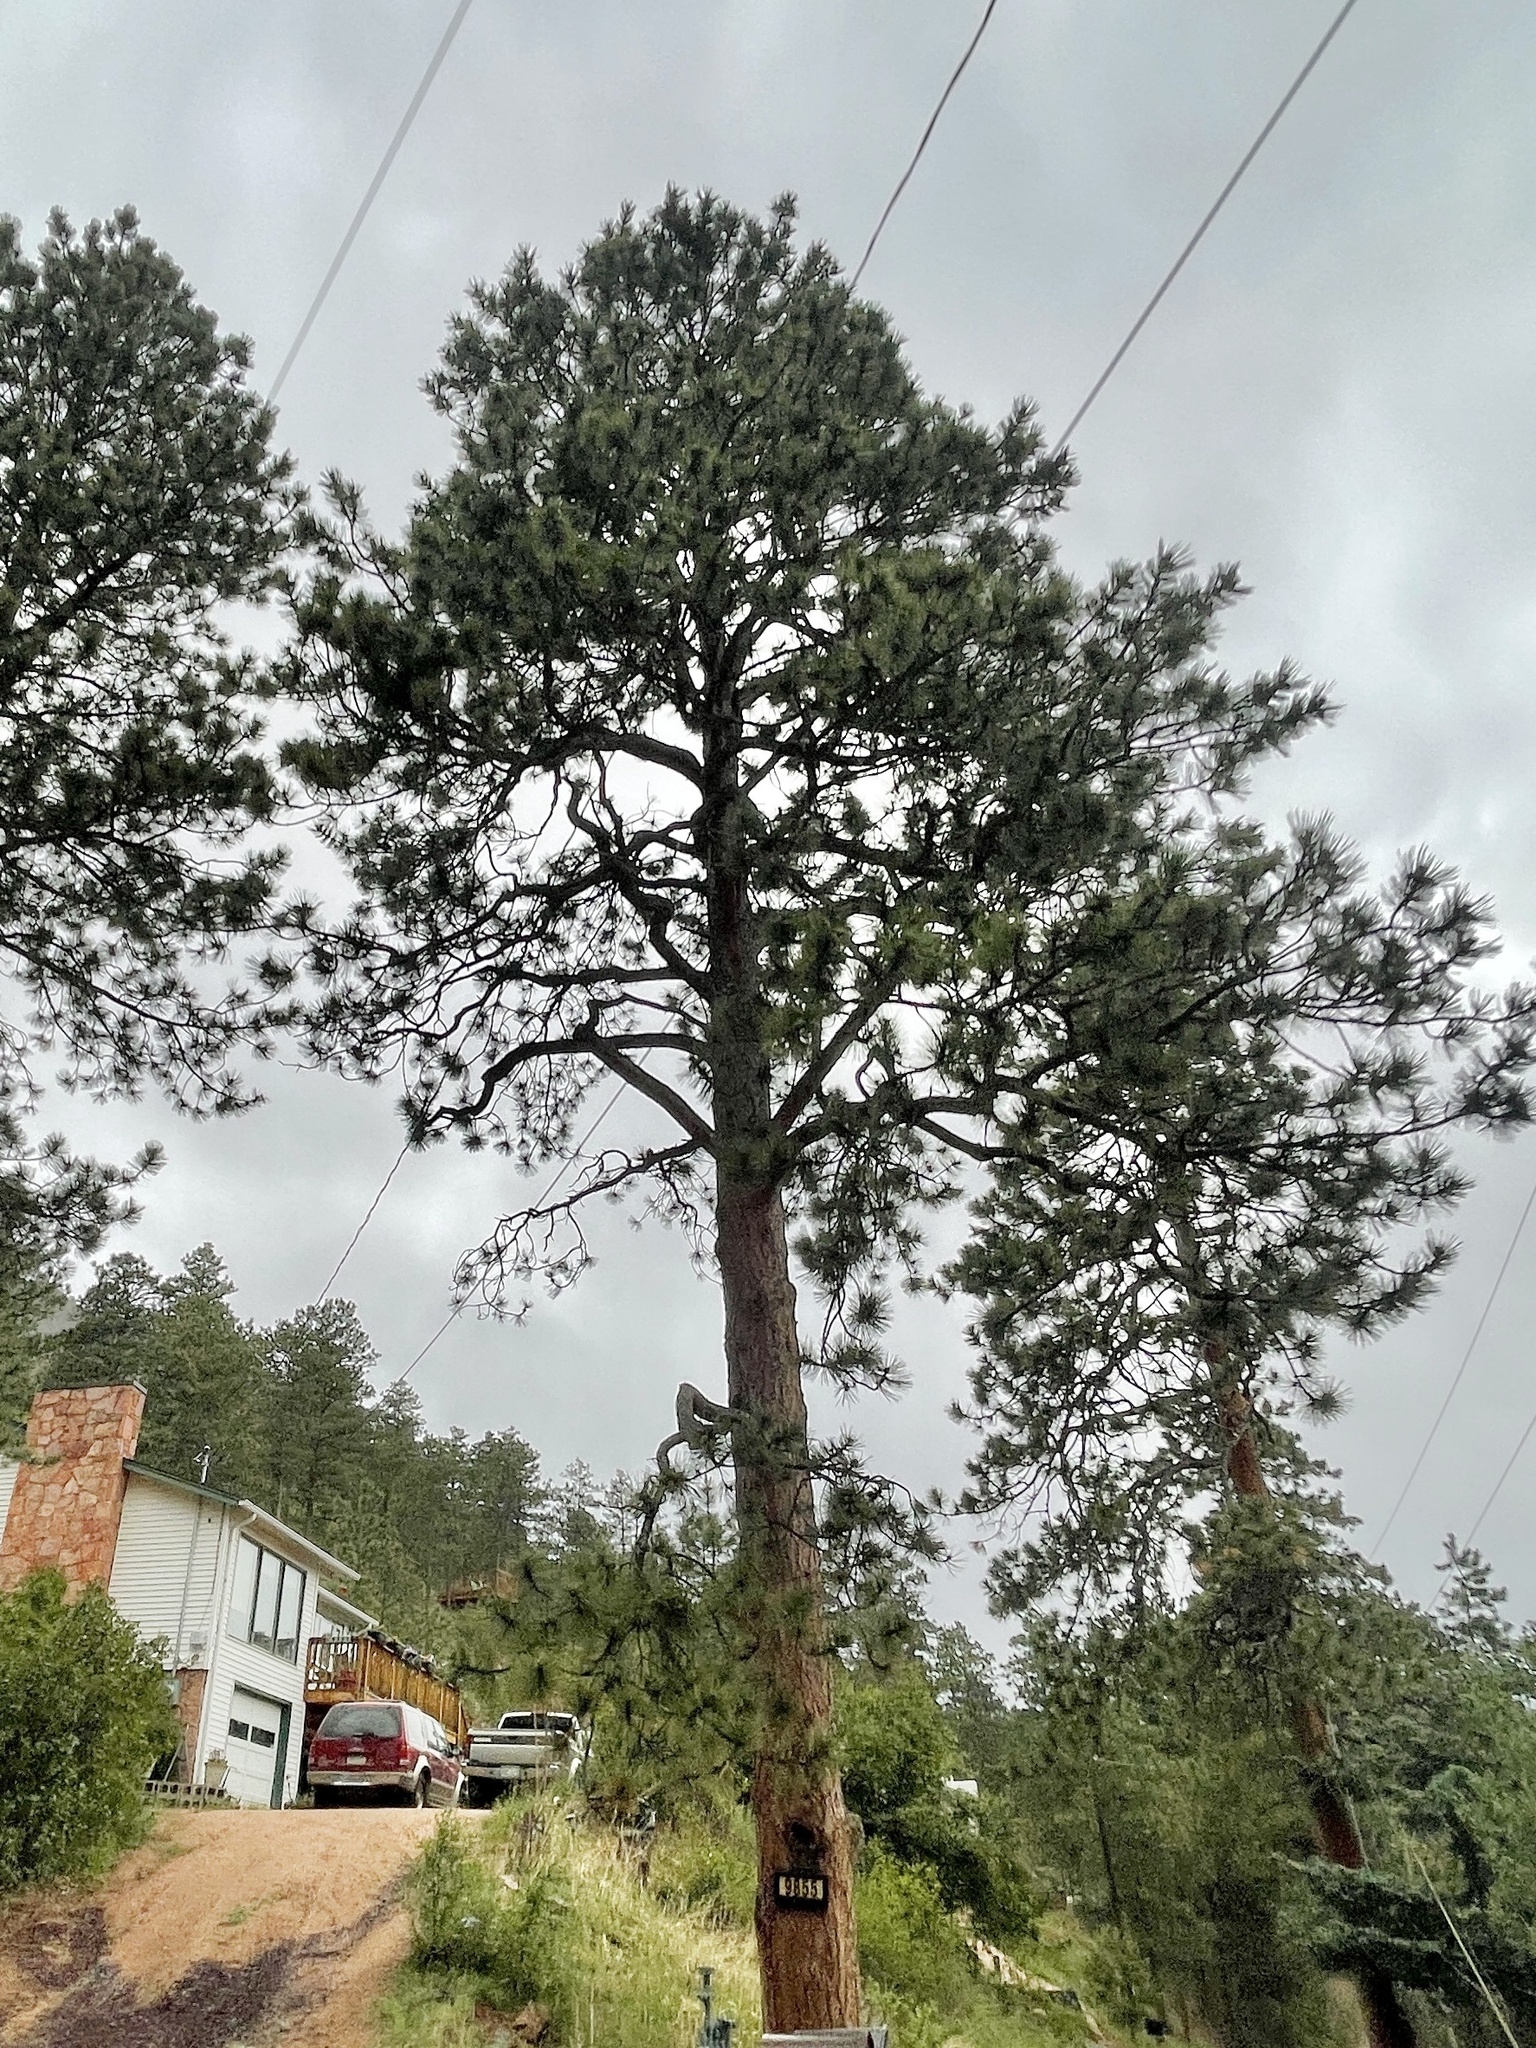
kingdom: Plantae
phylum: Tracheophyta
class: Pinopsida
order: Pinales
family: Pinaceae
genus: Pinus
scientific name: Pinus ponderosa
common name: Western yellow-pine
